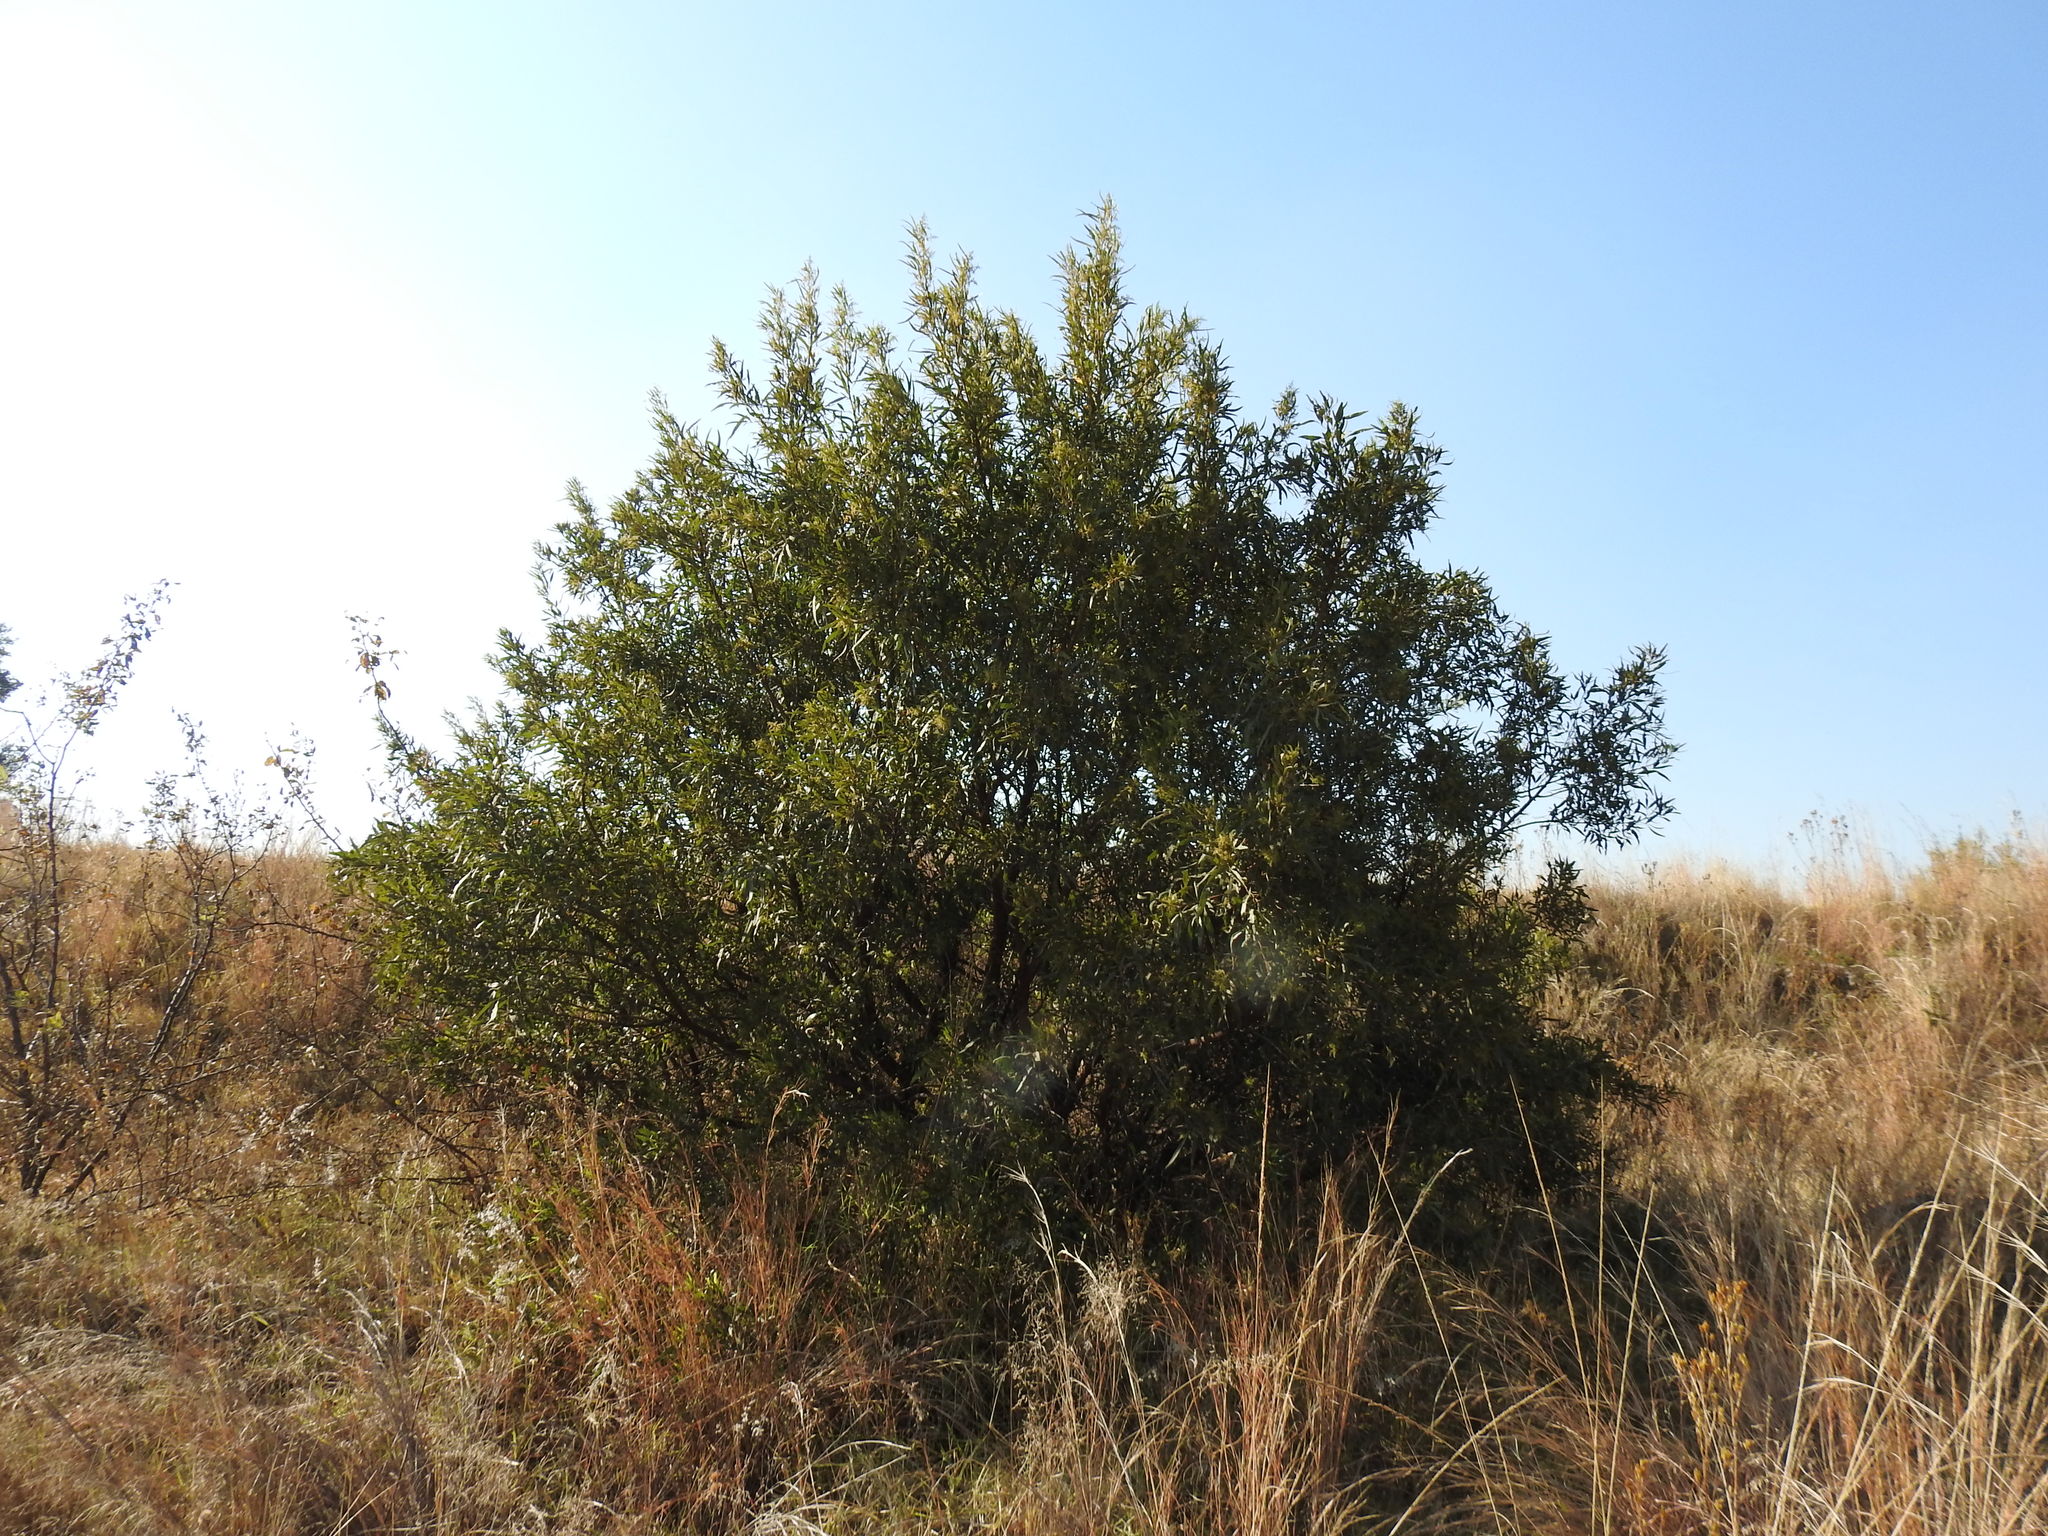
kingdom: Plantae
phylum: Tracheophyta
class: Magnoliopsida
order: Sapindales
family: Anacardiaceae
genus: Searsia
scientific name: Searsia lancea
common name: Cashew
